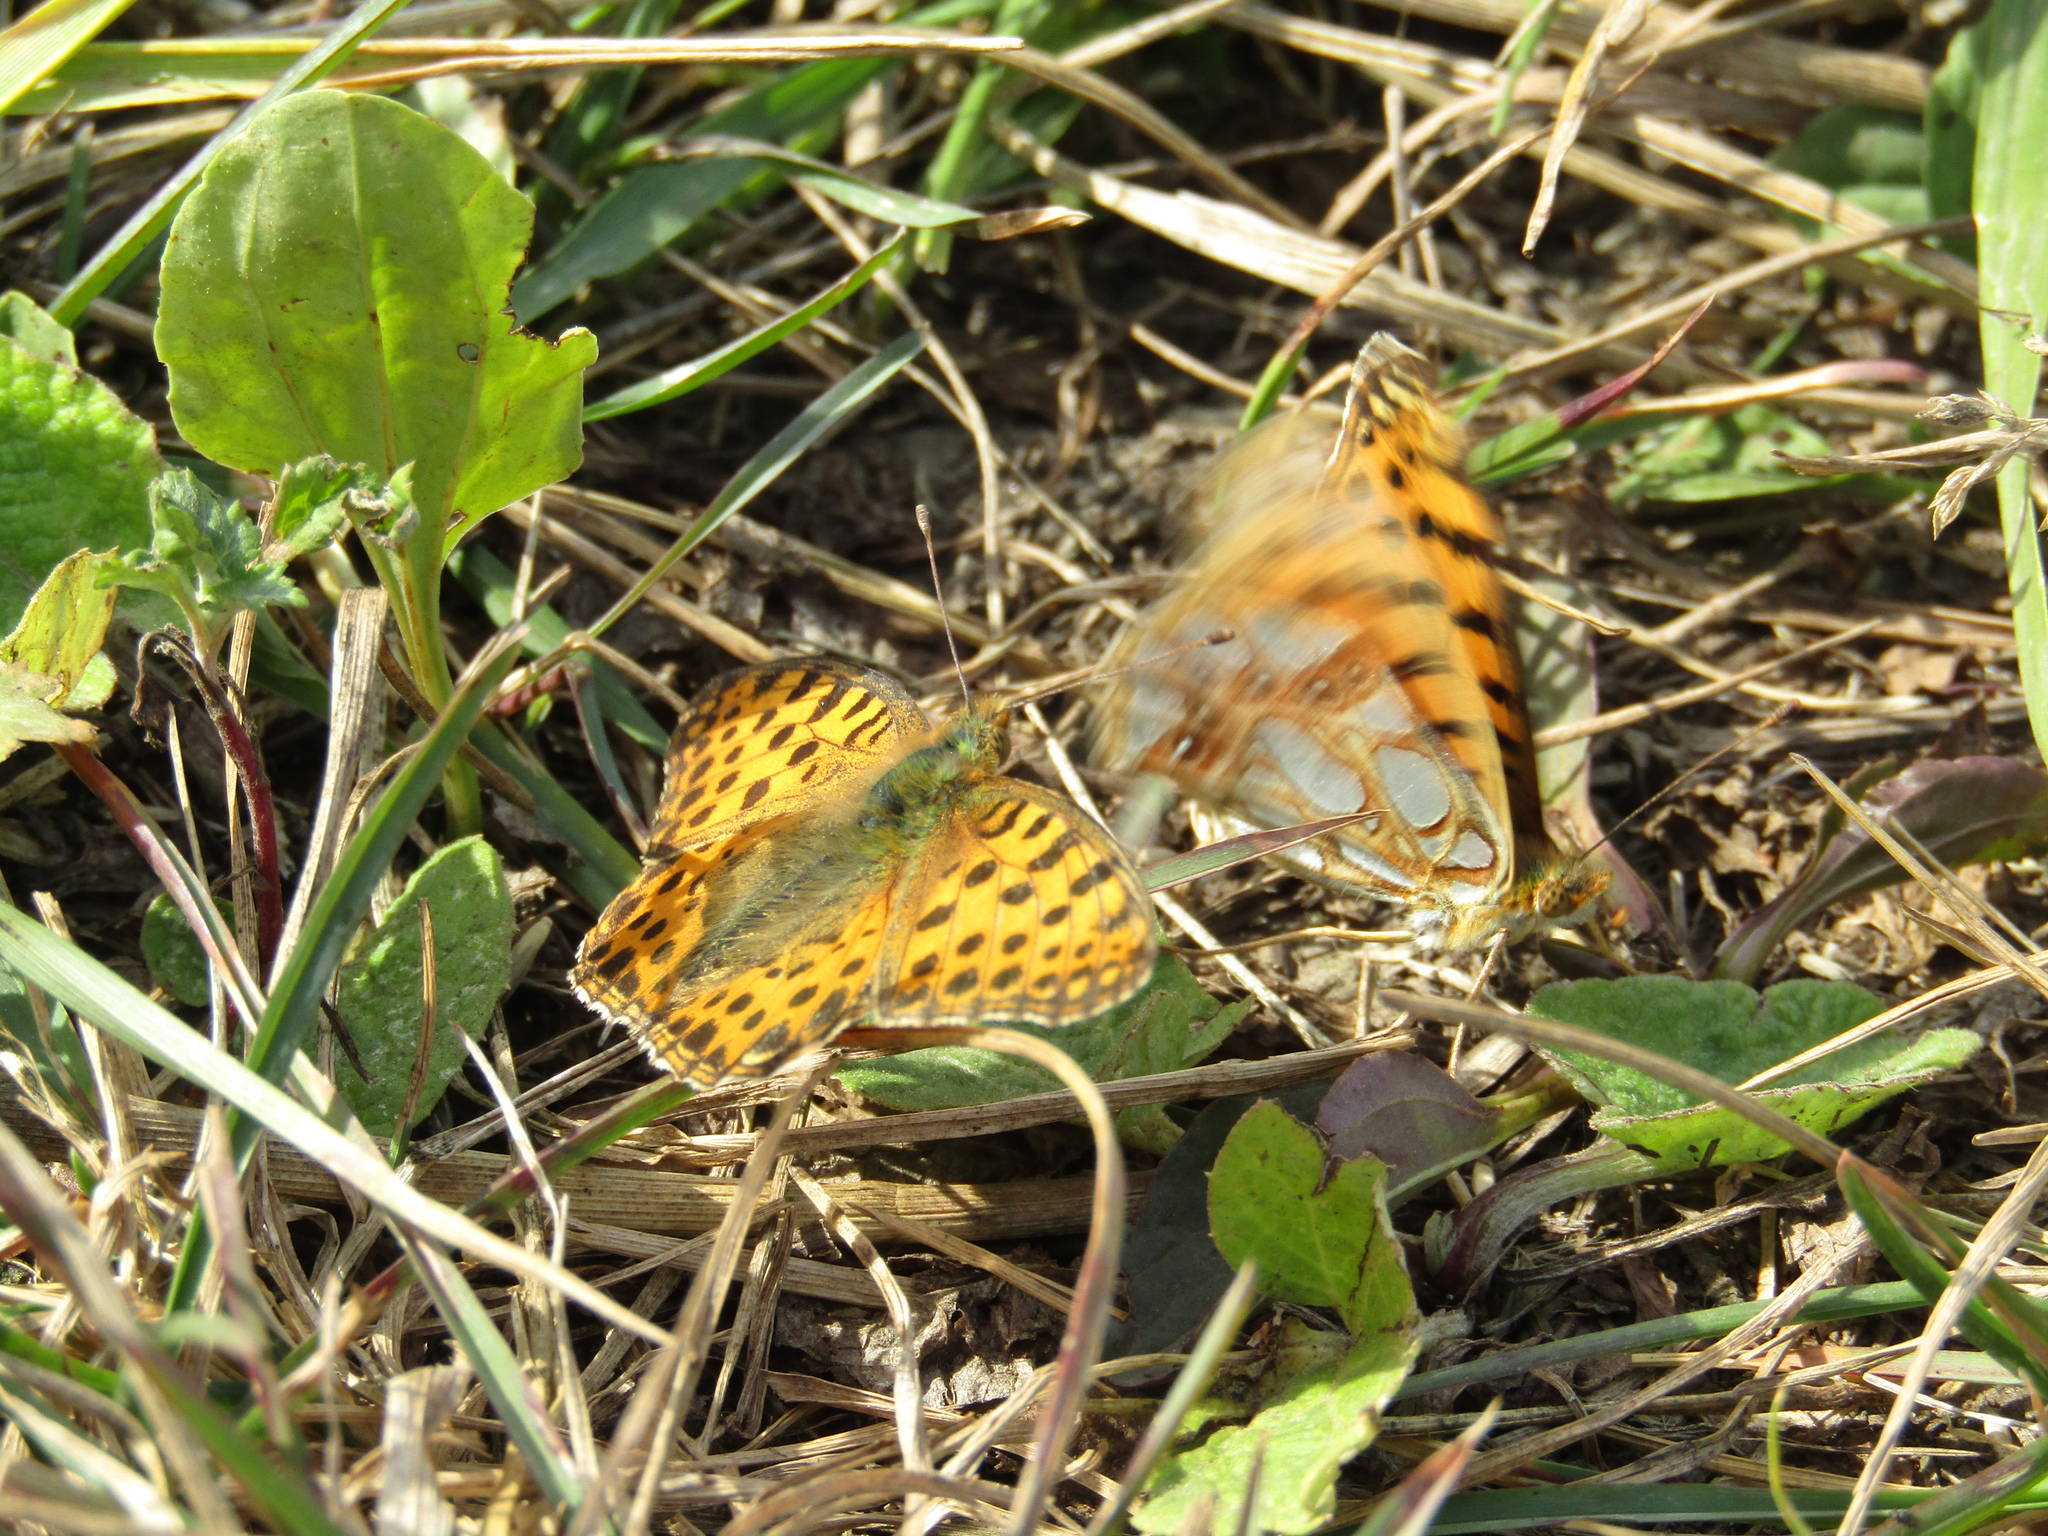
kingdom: Animalia
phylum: Arthropoda
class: Insecta
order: Lepidoptera
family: Nymphalidae
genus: Issoria
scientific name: Issoria lathonia
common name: Queen of spain fritillary
